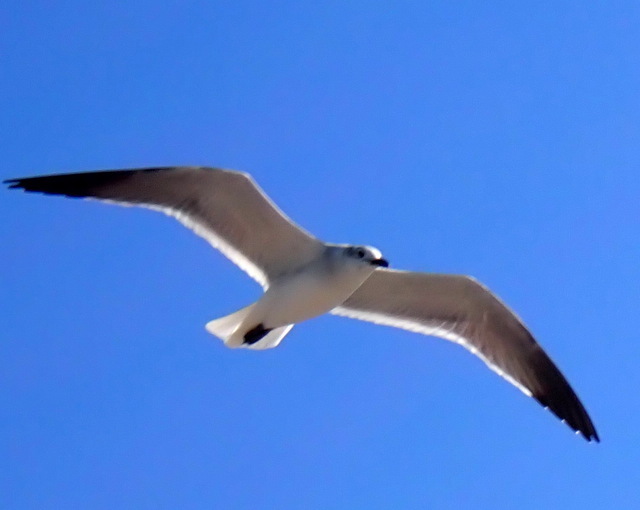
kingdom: Animalia
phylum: Chordata
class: Aves
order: Charadriiformes
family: Laridae
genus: Leucophaeus
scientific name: Leucophaeus atricilla
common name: Laughing gull
